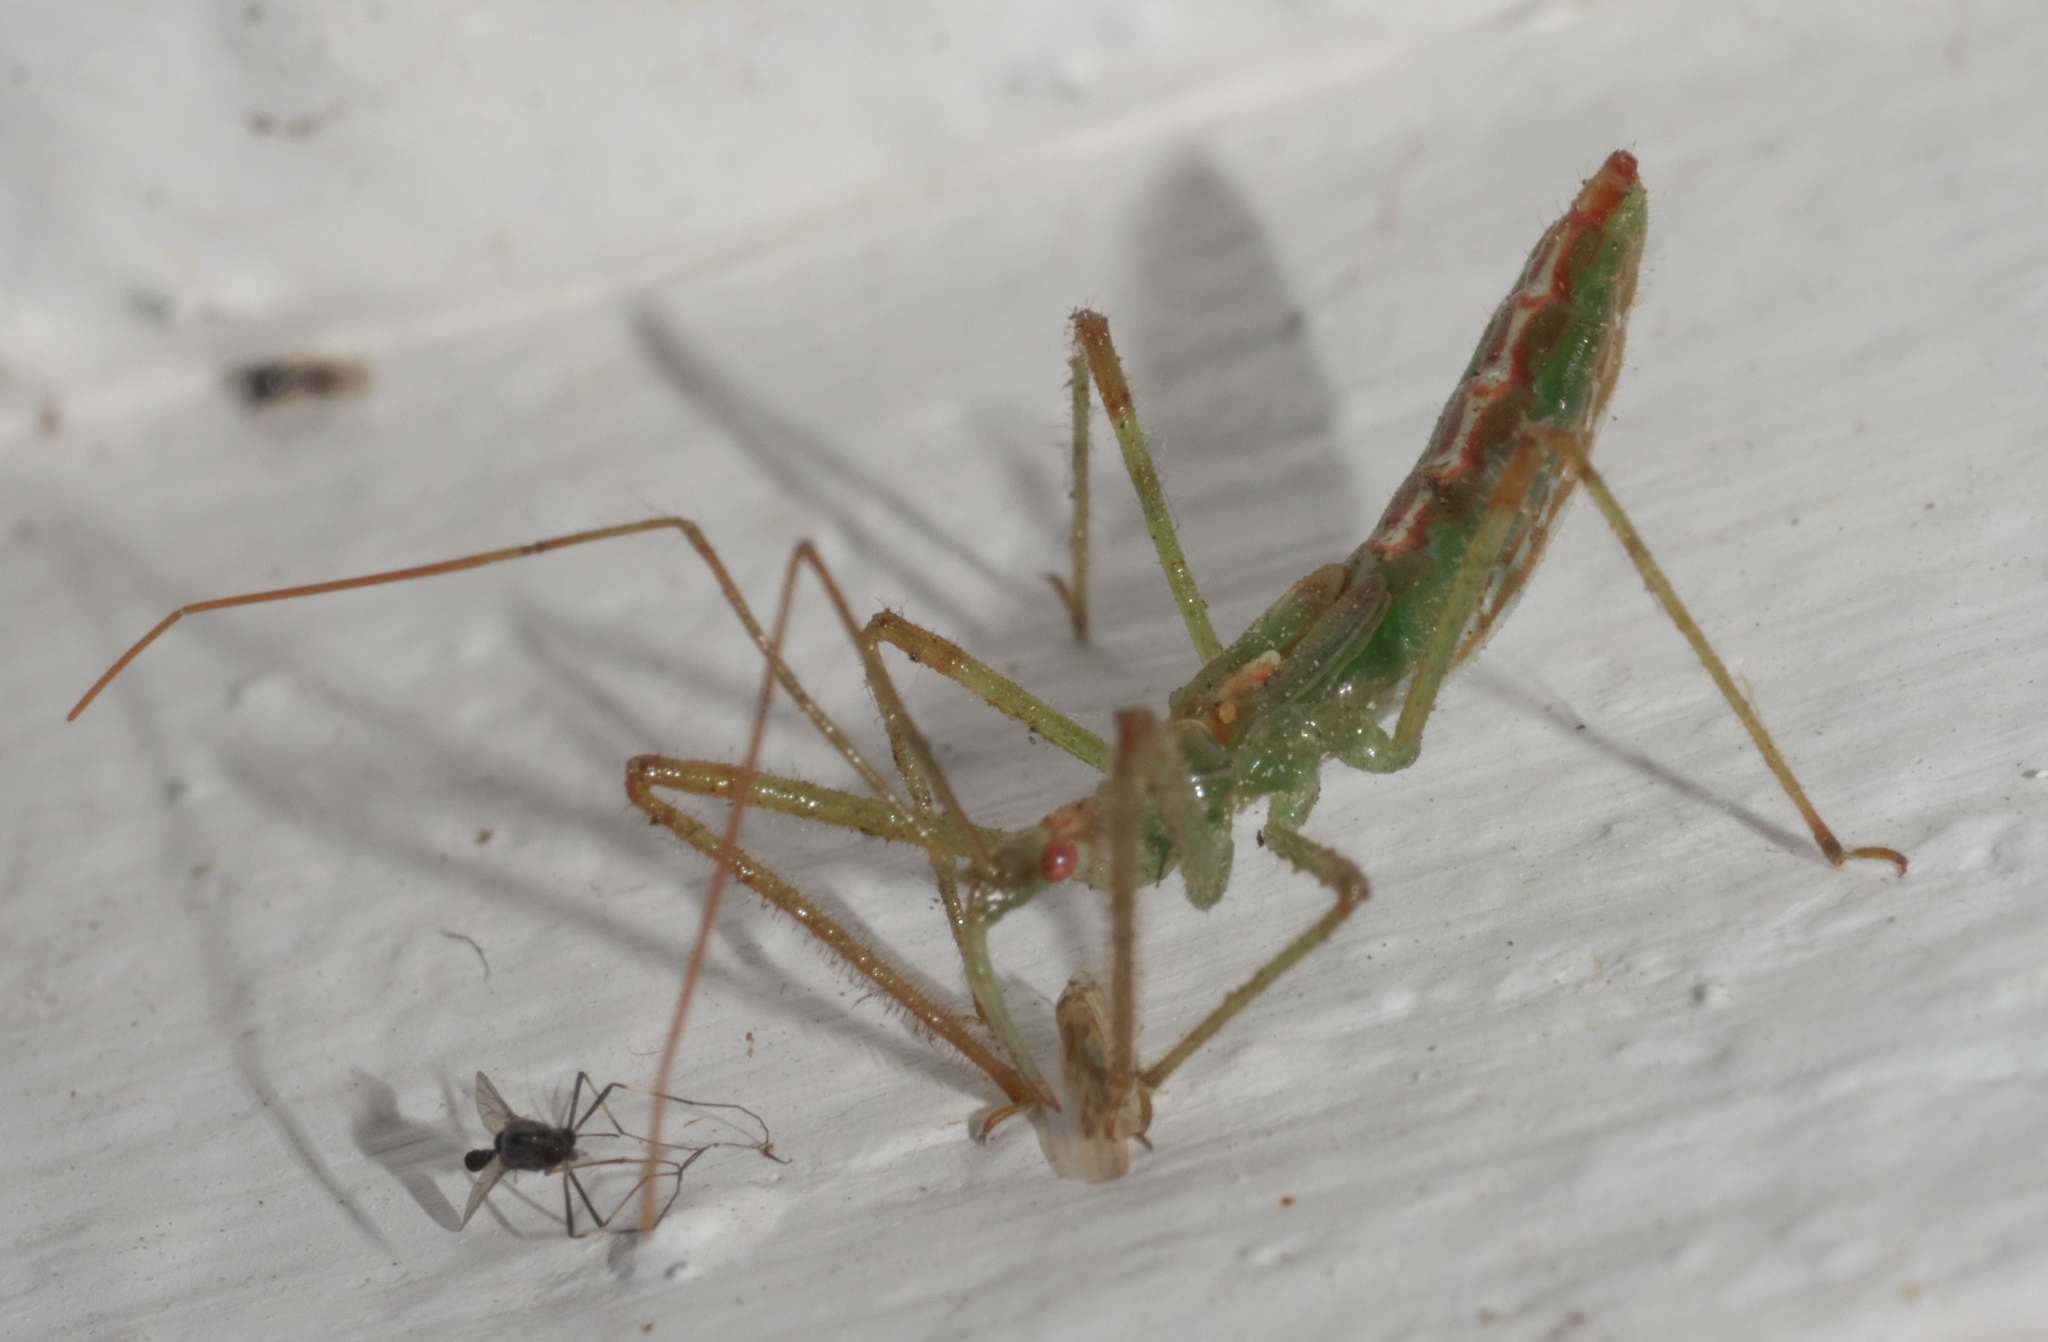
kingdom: Animalia
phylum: Arthropoda
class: Insecta
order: Hemiptera
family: Reduviidae
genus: Zelus
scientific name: Zelus luridus
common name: Pale green assassin bug
